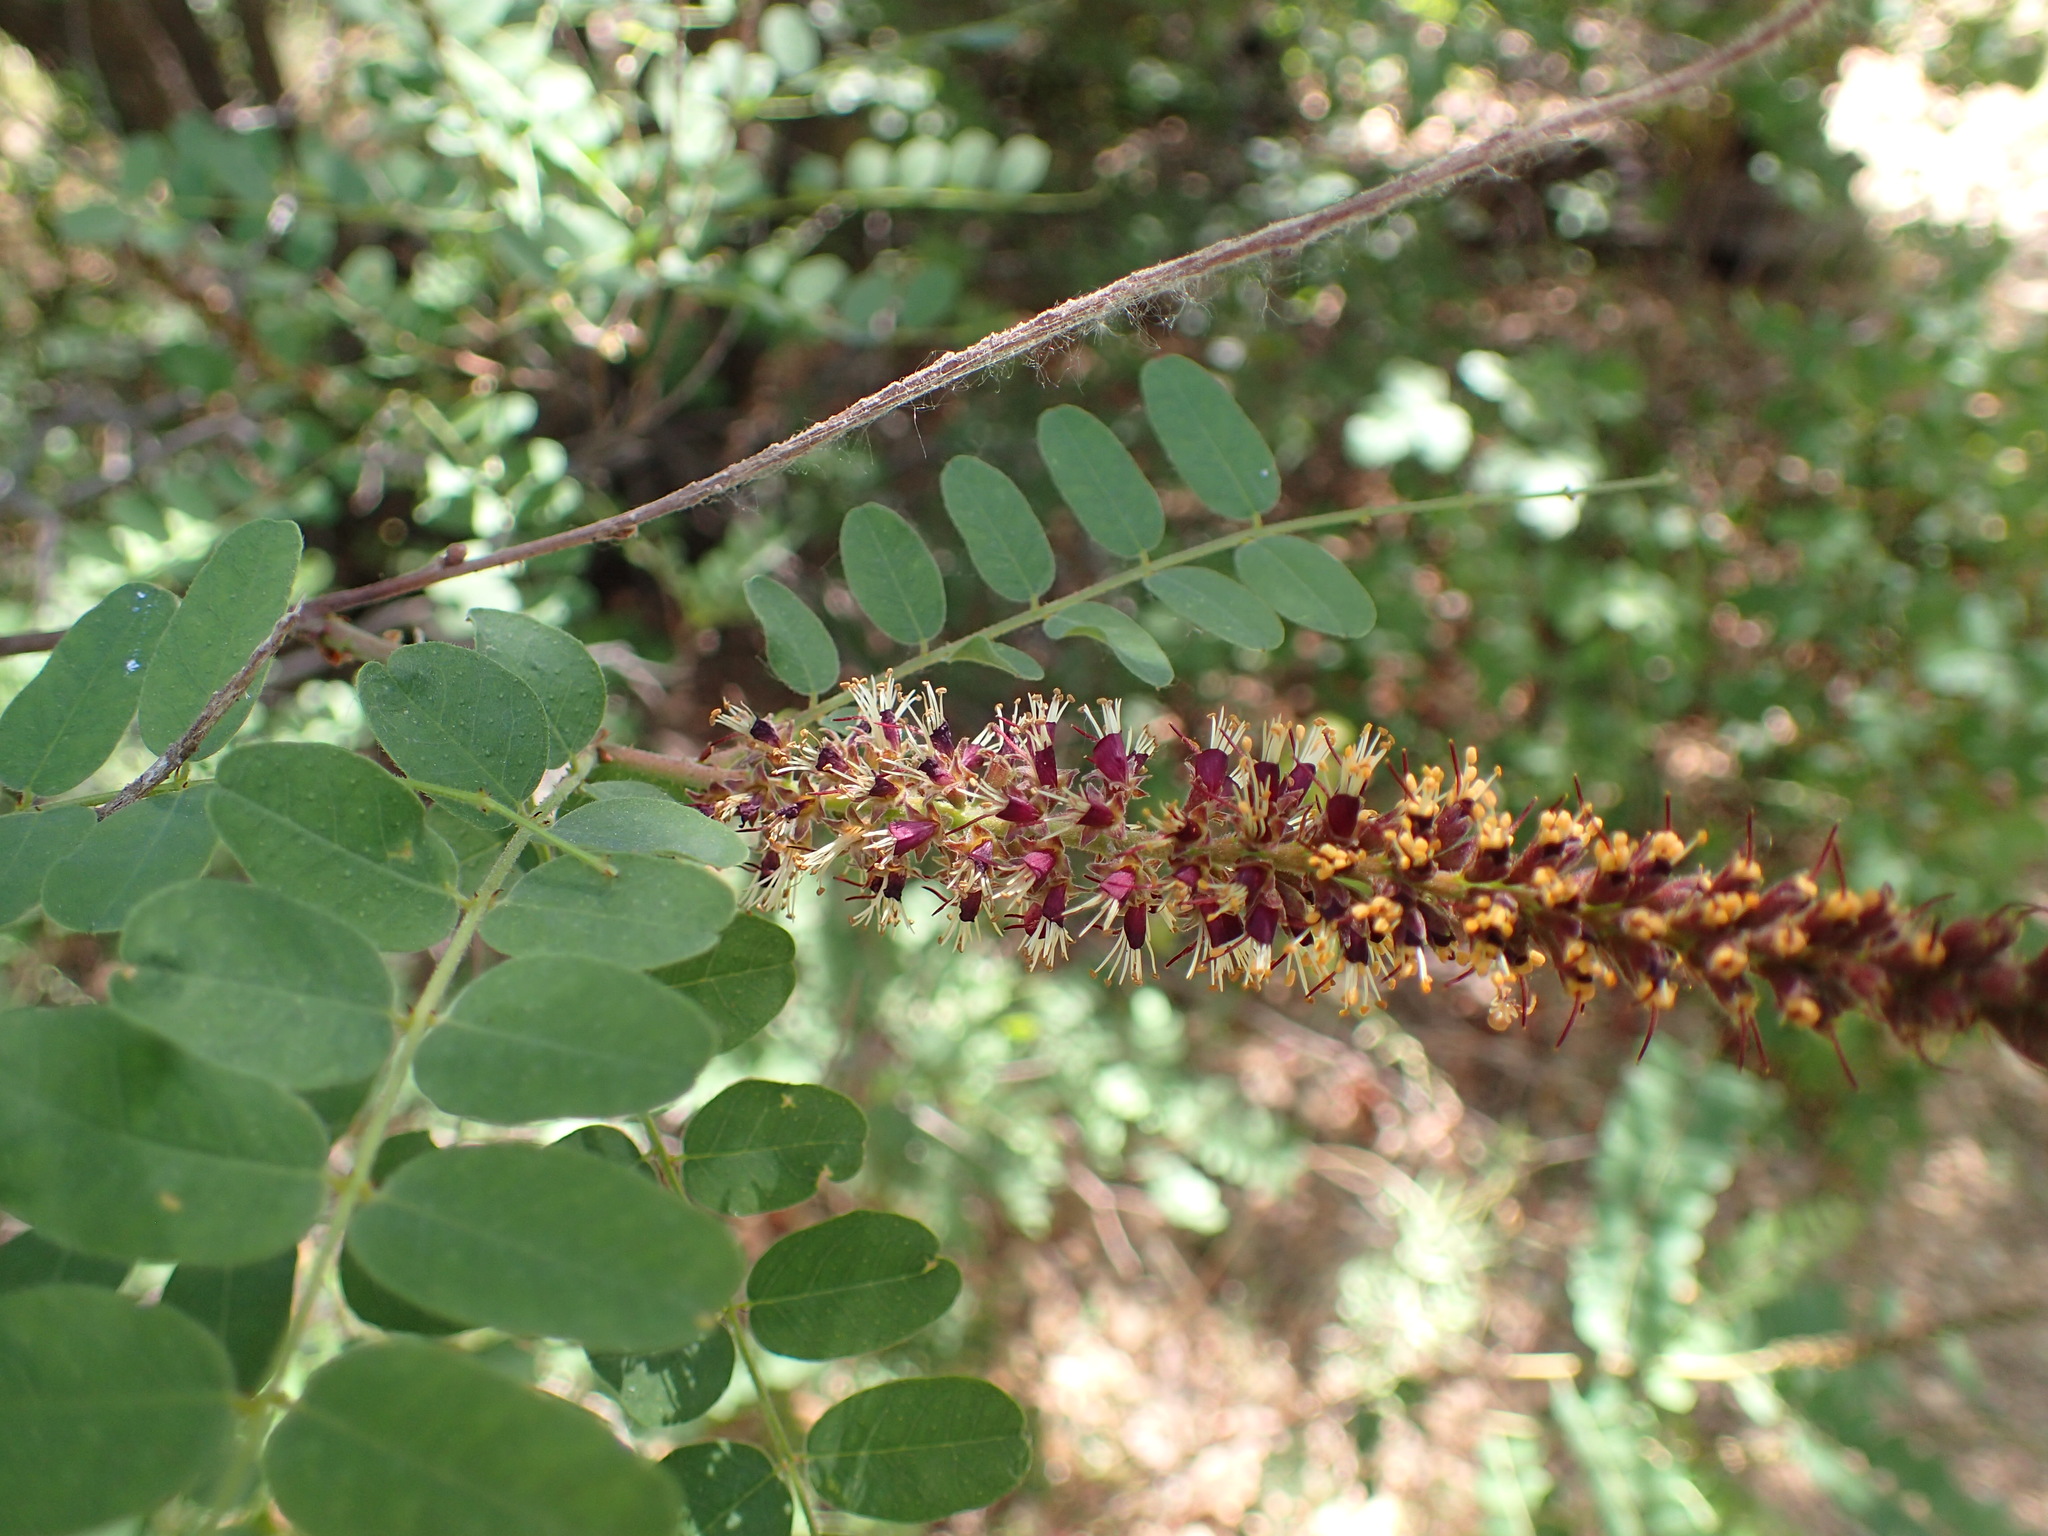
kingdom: Plantae
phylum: Tracheophyta
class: Magnoliopsida
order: Fabales
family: Fabaceae
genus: Amorpha
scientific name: Amorpha californica
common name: California indigobush
